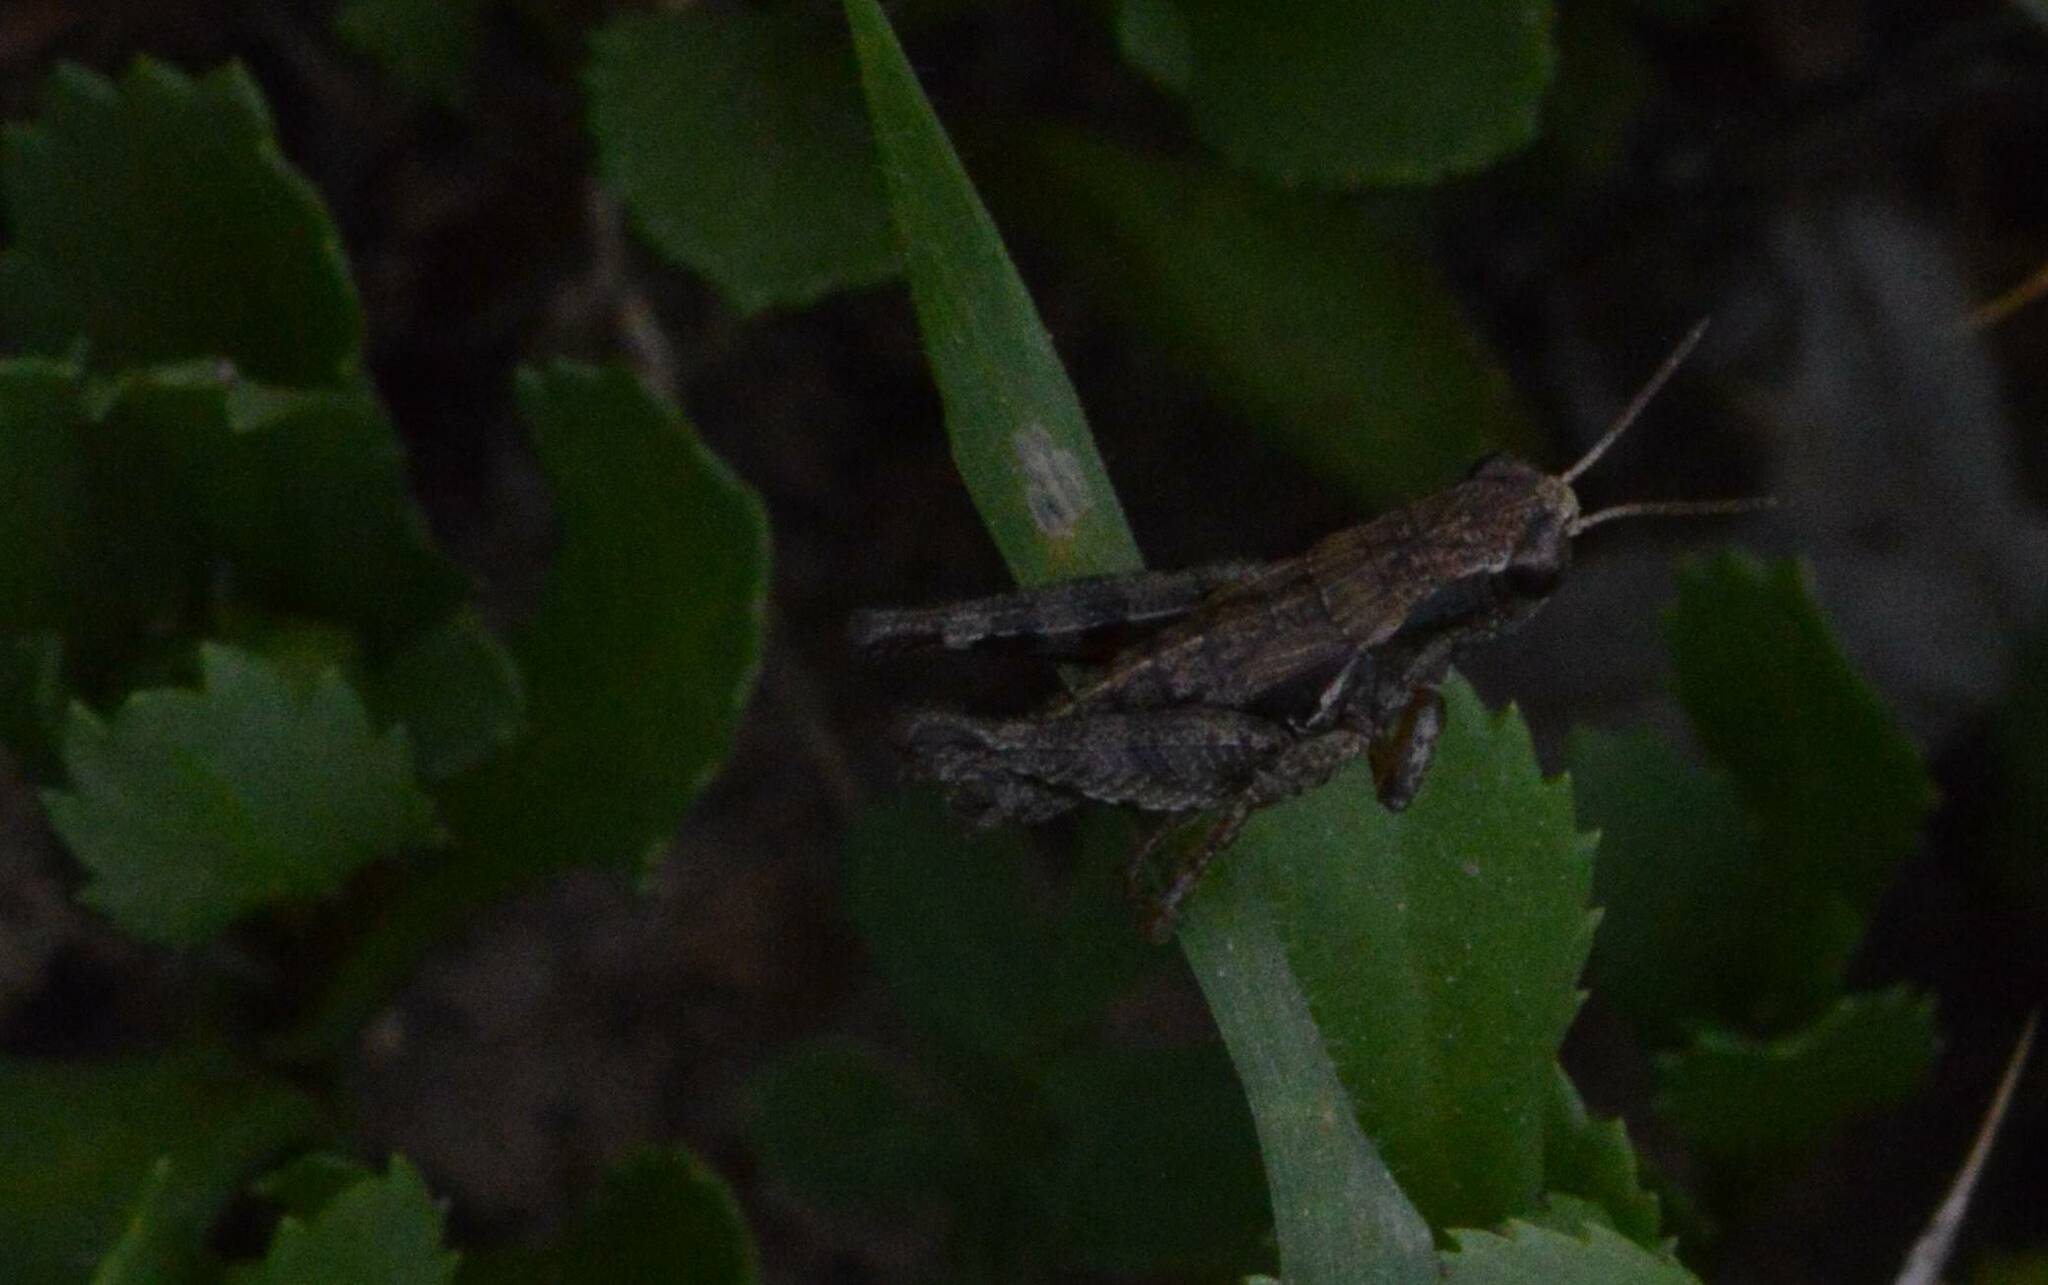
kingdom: Animalia
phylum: Arthropoda
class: Insecta
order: Orthoptera
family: Acrididae
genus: Pezotettix
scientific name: Pezotettix giornae
